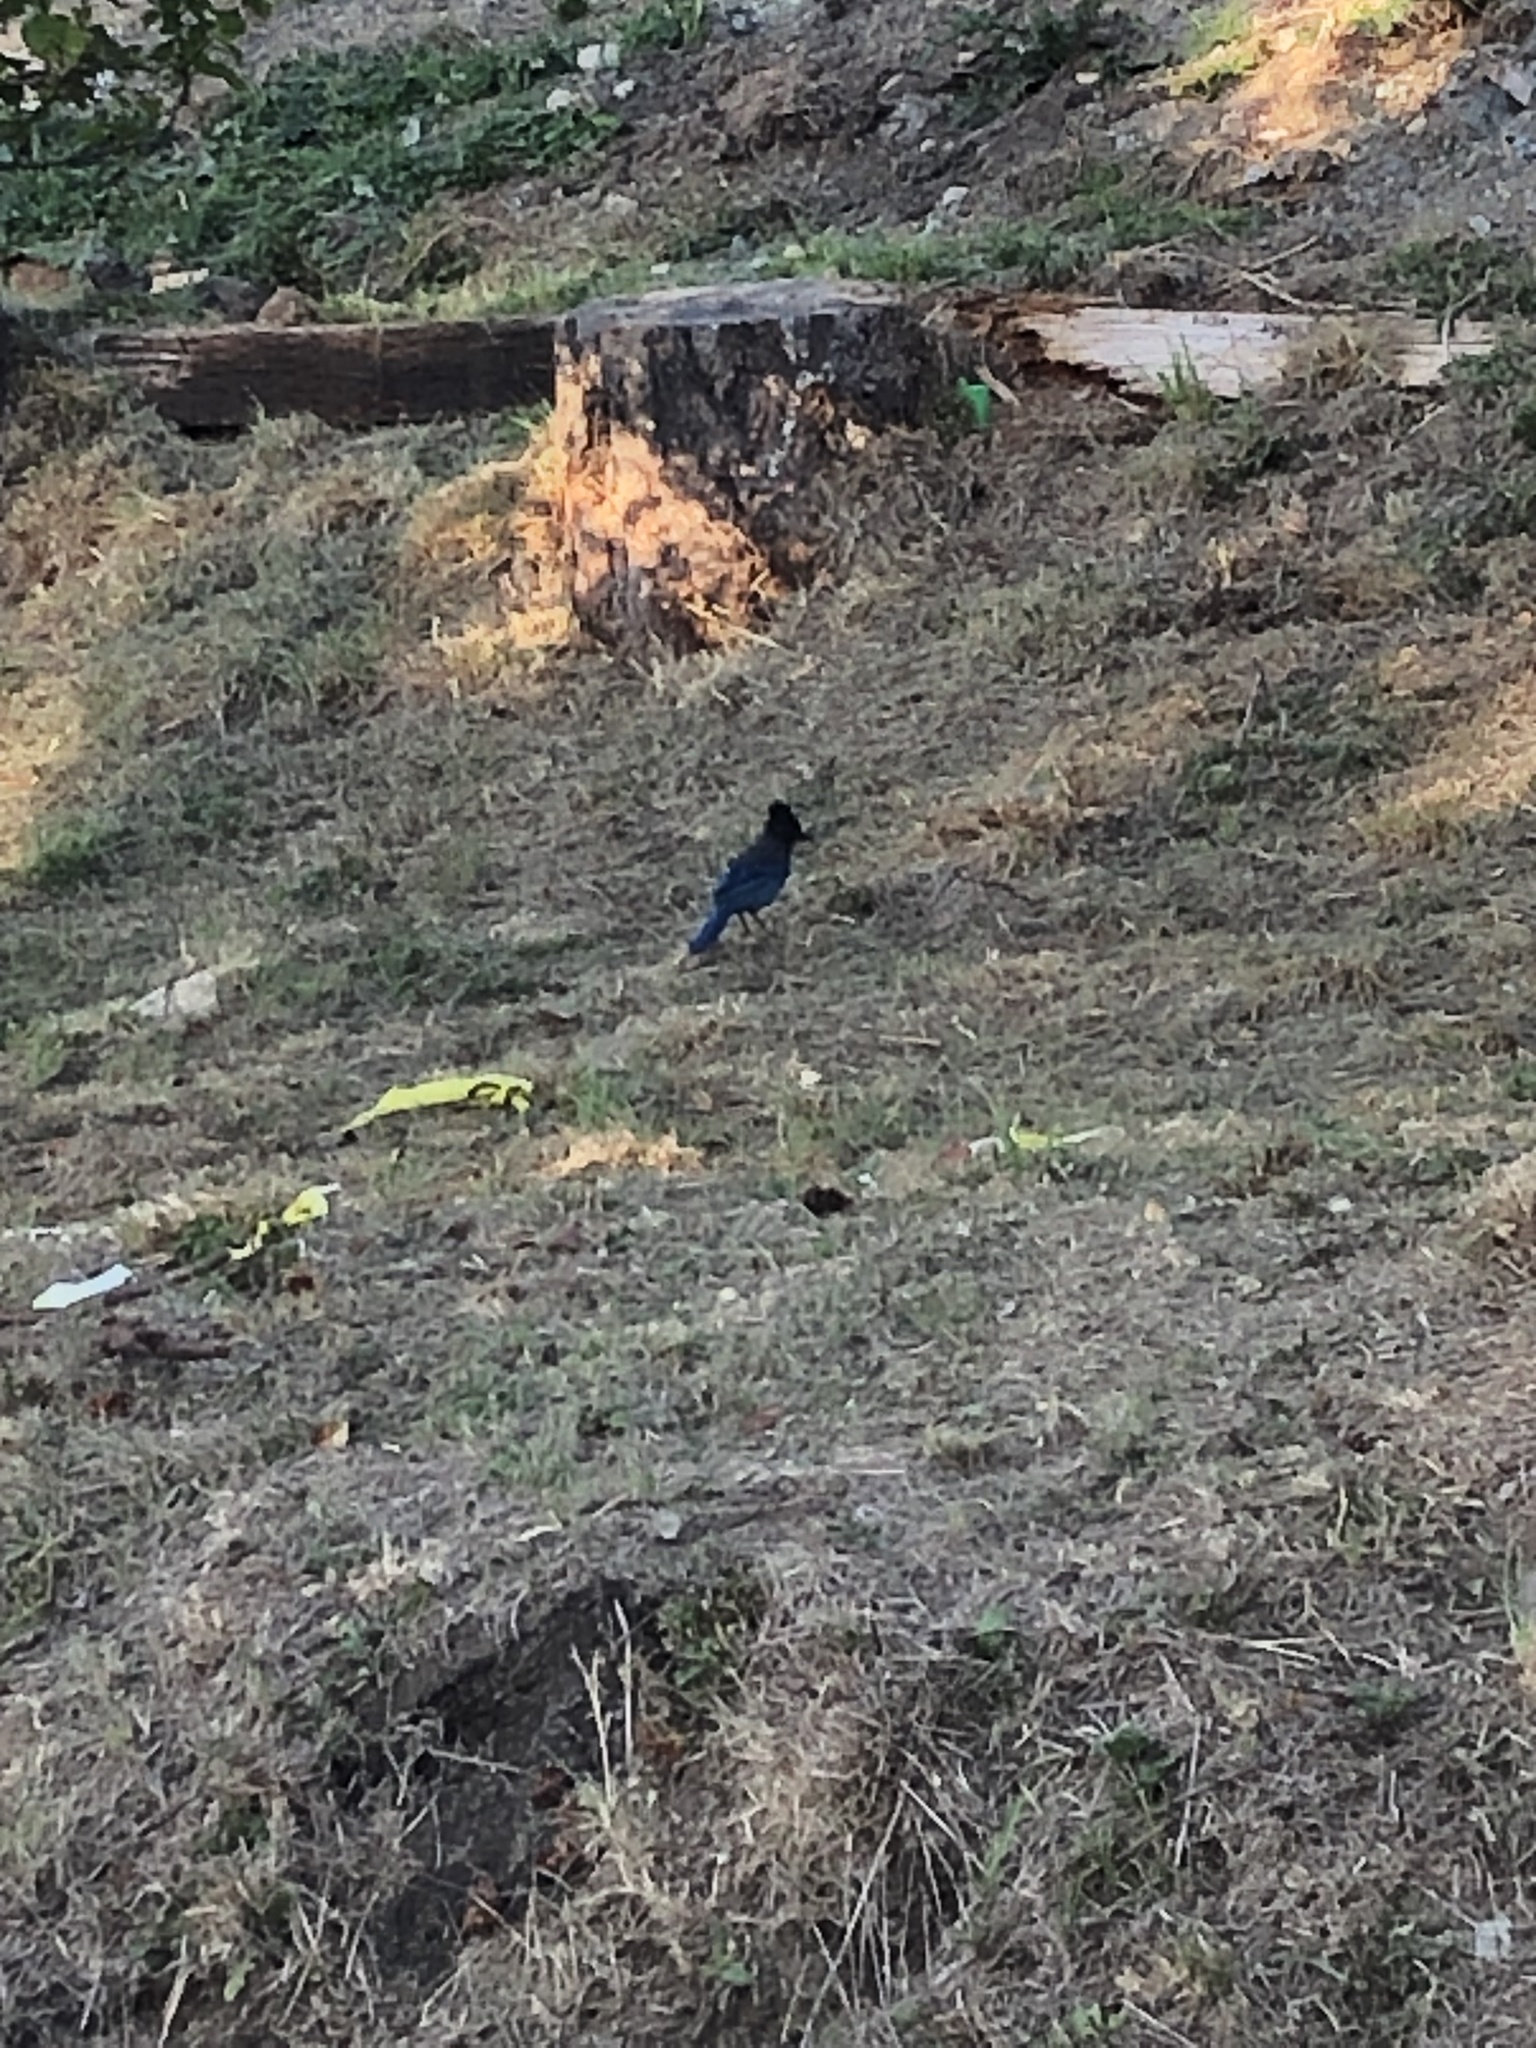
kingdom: Animalia
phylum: Chordata
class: Aves
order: Passeriformes
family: Corvidae
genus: Cyanocitta
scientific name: Cyanocitta stelleri
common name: Steller's jay
